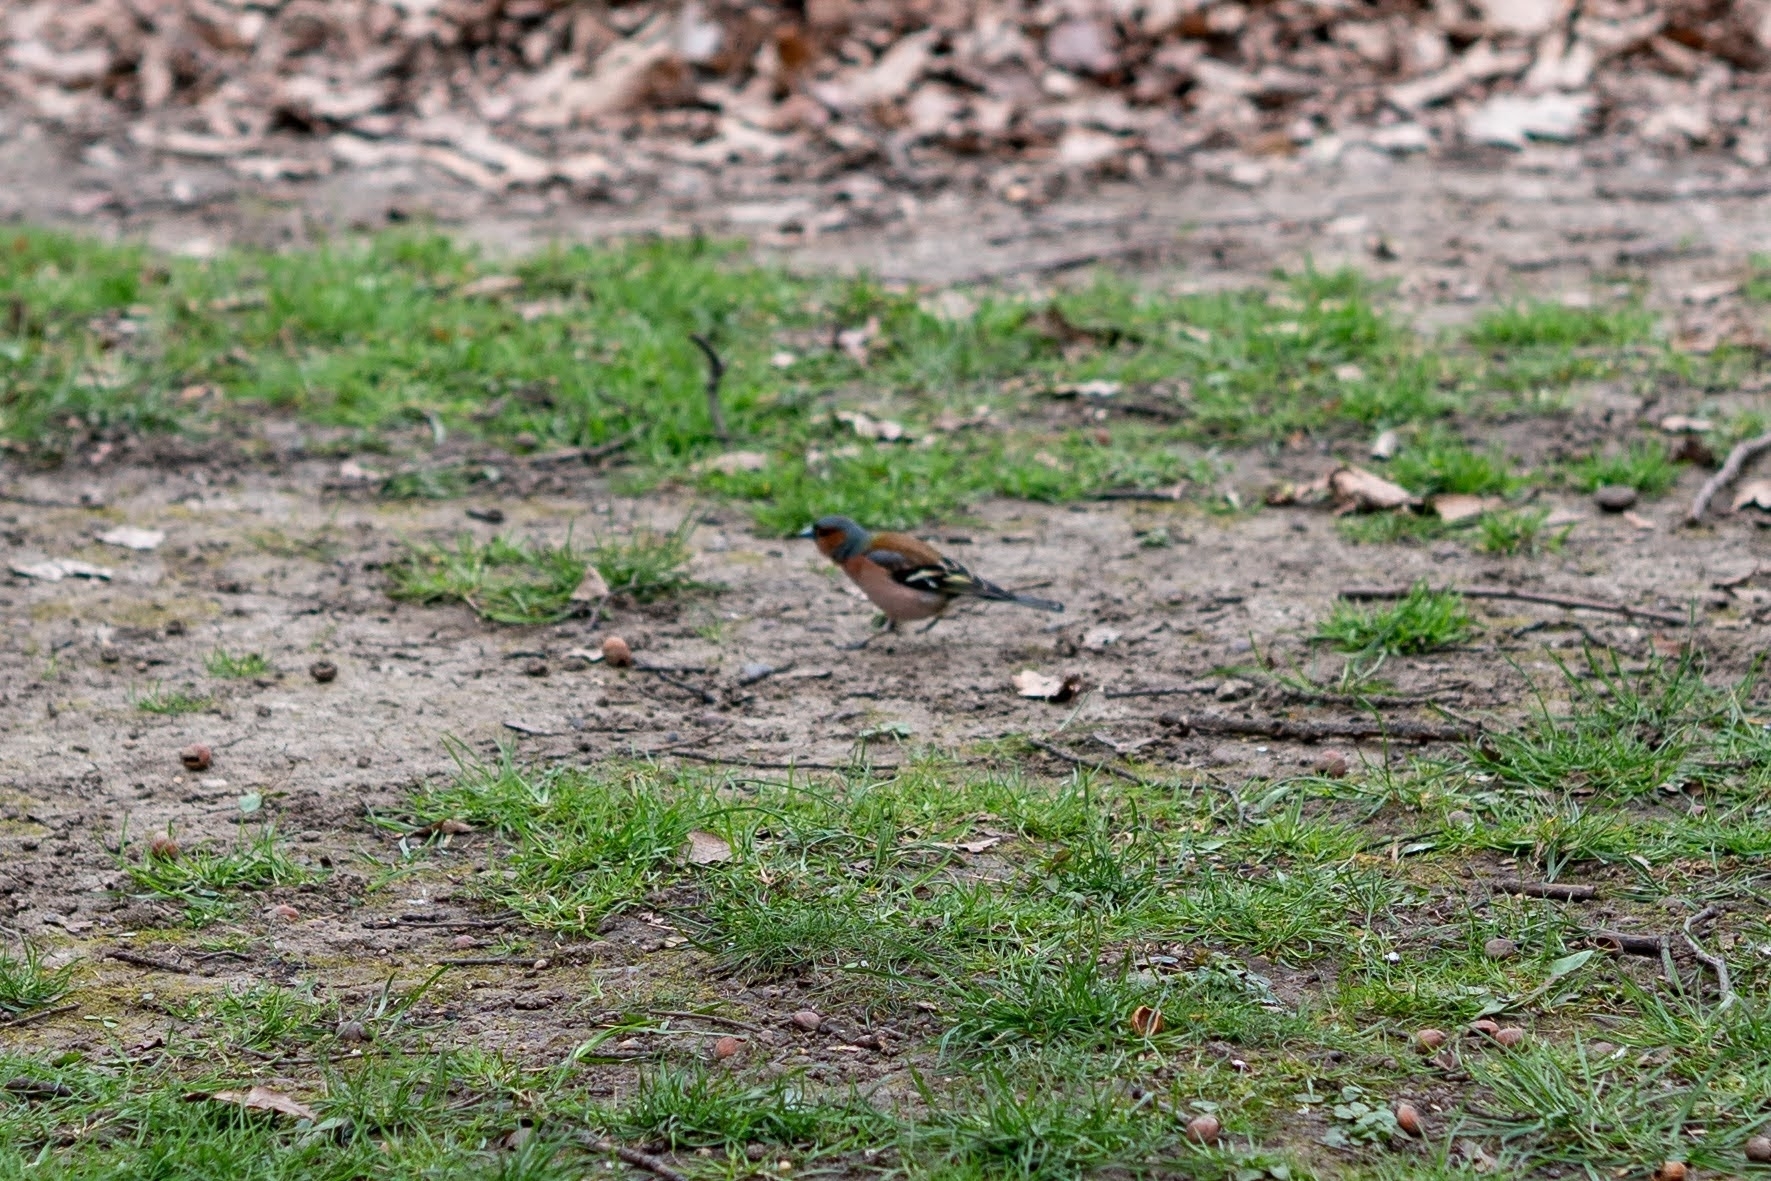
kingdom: Animalia
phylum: Chordata
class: Aves
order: Passeriformes
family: Fringillidae
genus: Fringilla
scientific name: Fringilla coelebs
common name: Common chaffinch
